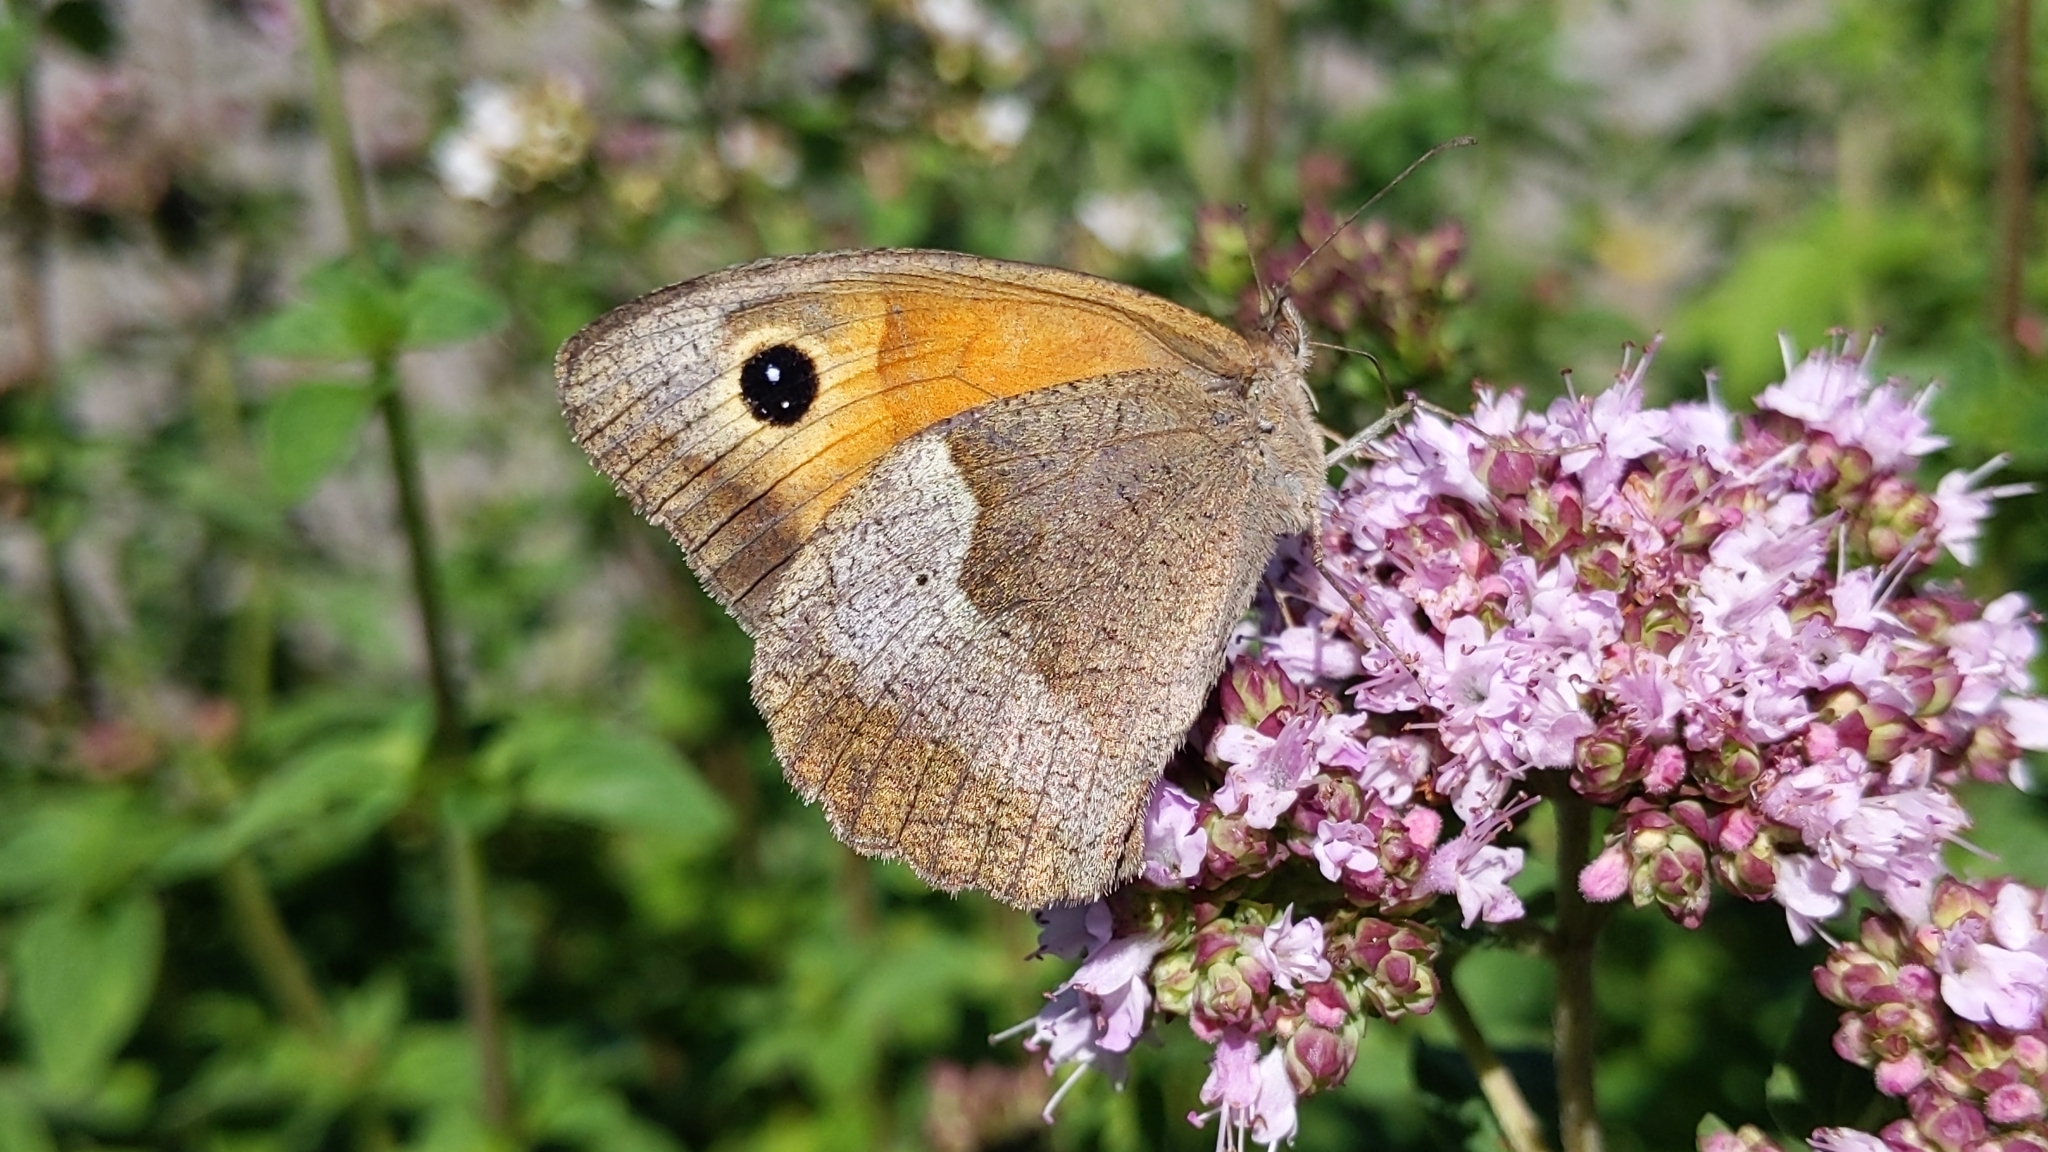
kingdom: Animalia
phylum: Arthropoda
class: Insecta
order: Lepidoptera
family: Nymphalidae
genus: Maniola
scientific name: Maniola jurtina
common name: Meadow brown
